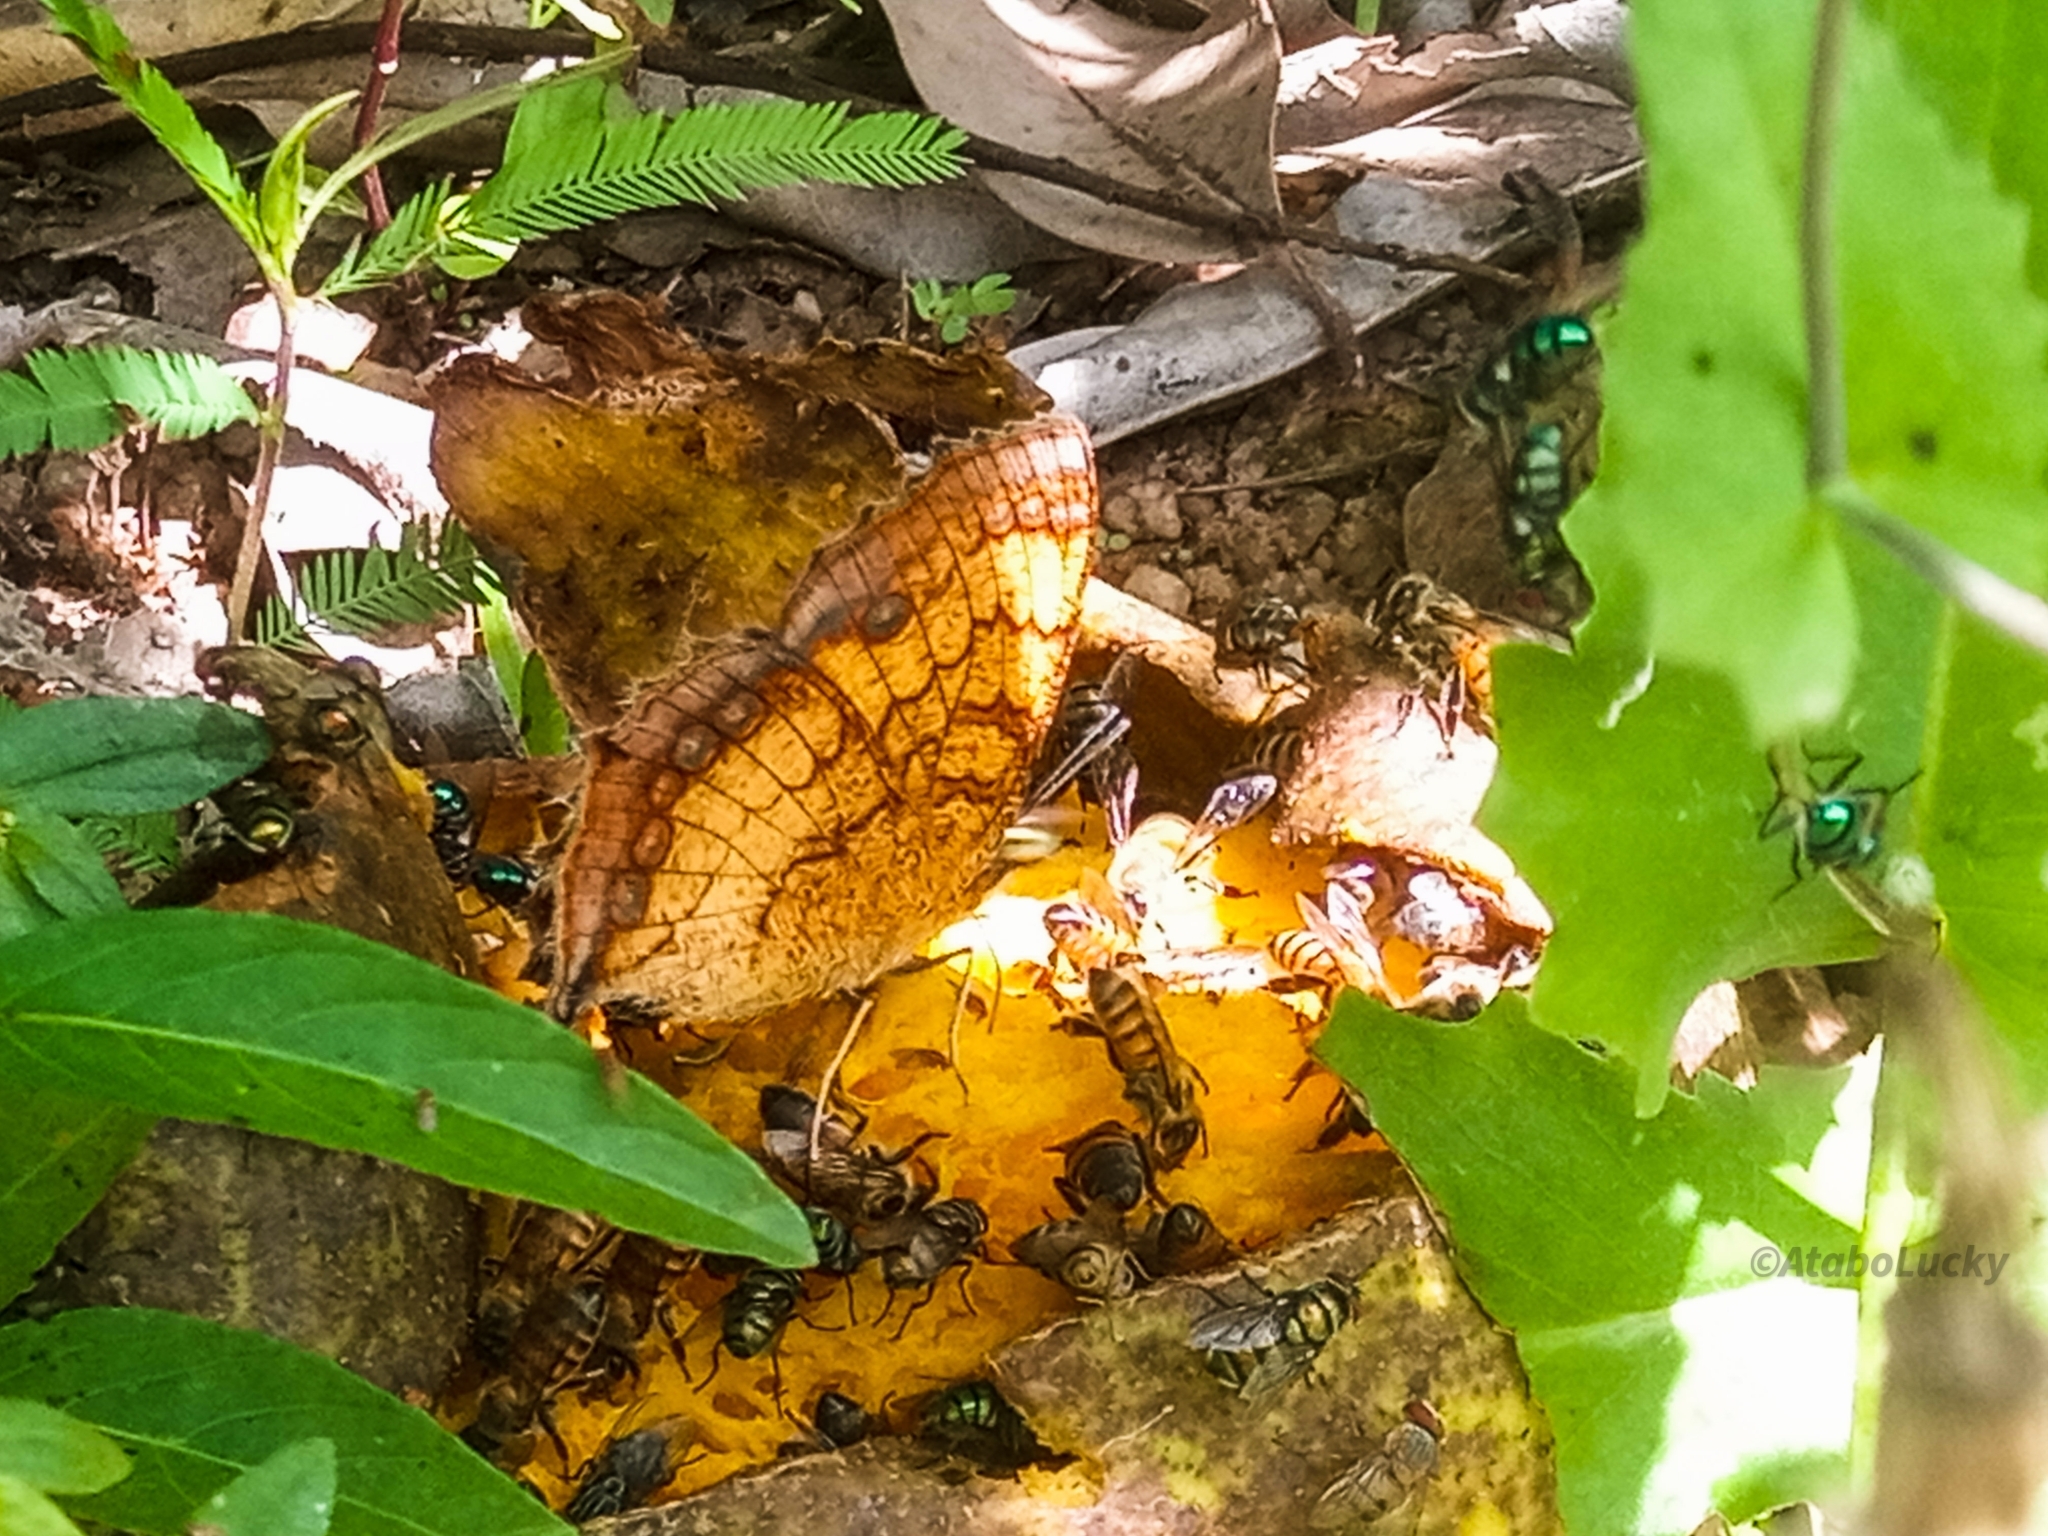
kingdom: Animalia
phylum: Arthropoda
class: Insecta
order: Lepidoptera
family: Nymphalidae
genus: Catacroptera
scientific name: Catacroptera cloanthe
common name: Pirate
